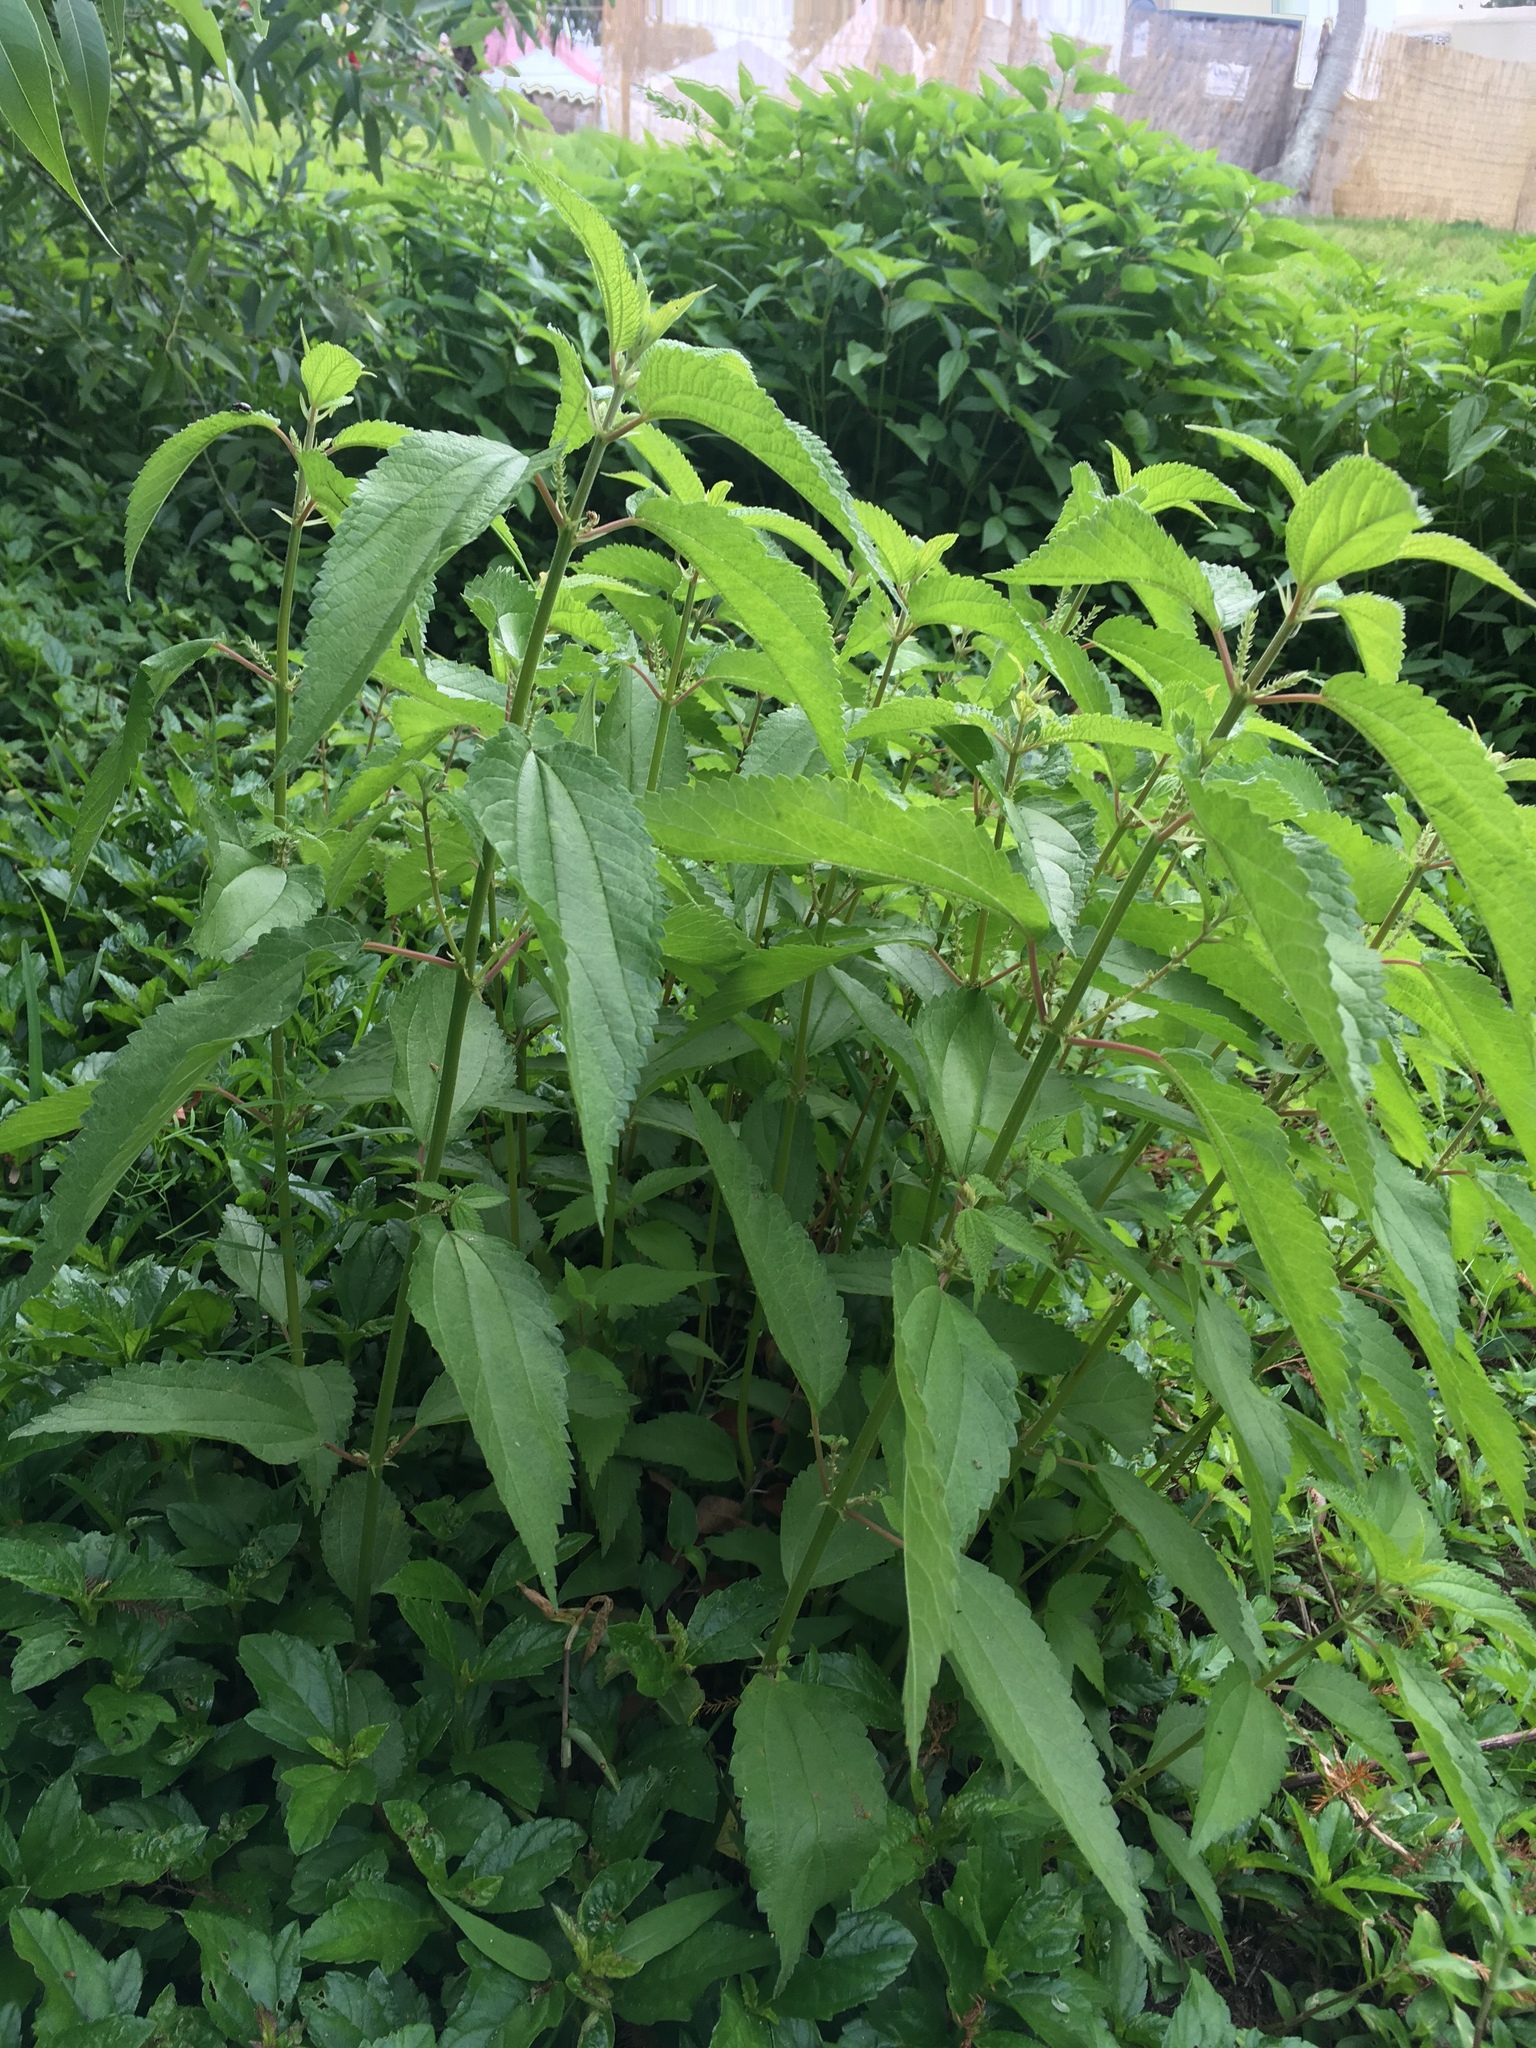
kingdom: Plantae
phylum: Tracheophyta
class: Magnoliopsida
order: Rosales
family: Urticaceae
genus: Boehmeria
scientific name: Boehmeria cylindrica
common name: Bog-hemp
